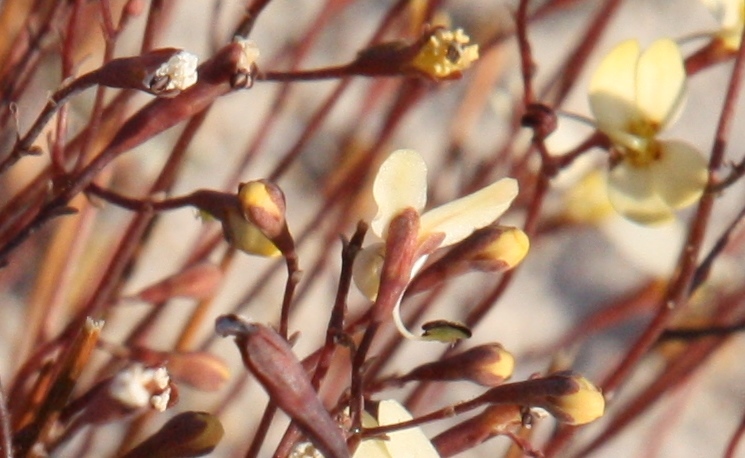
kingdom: Plantae
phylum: Tracheophyta
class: Magnoliopsida
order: Asterales
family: Stylidiaceae
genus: Stylidium
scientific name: Stylidium rupestre
